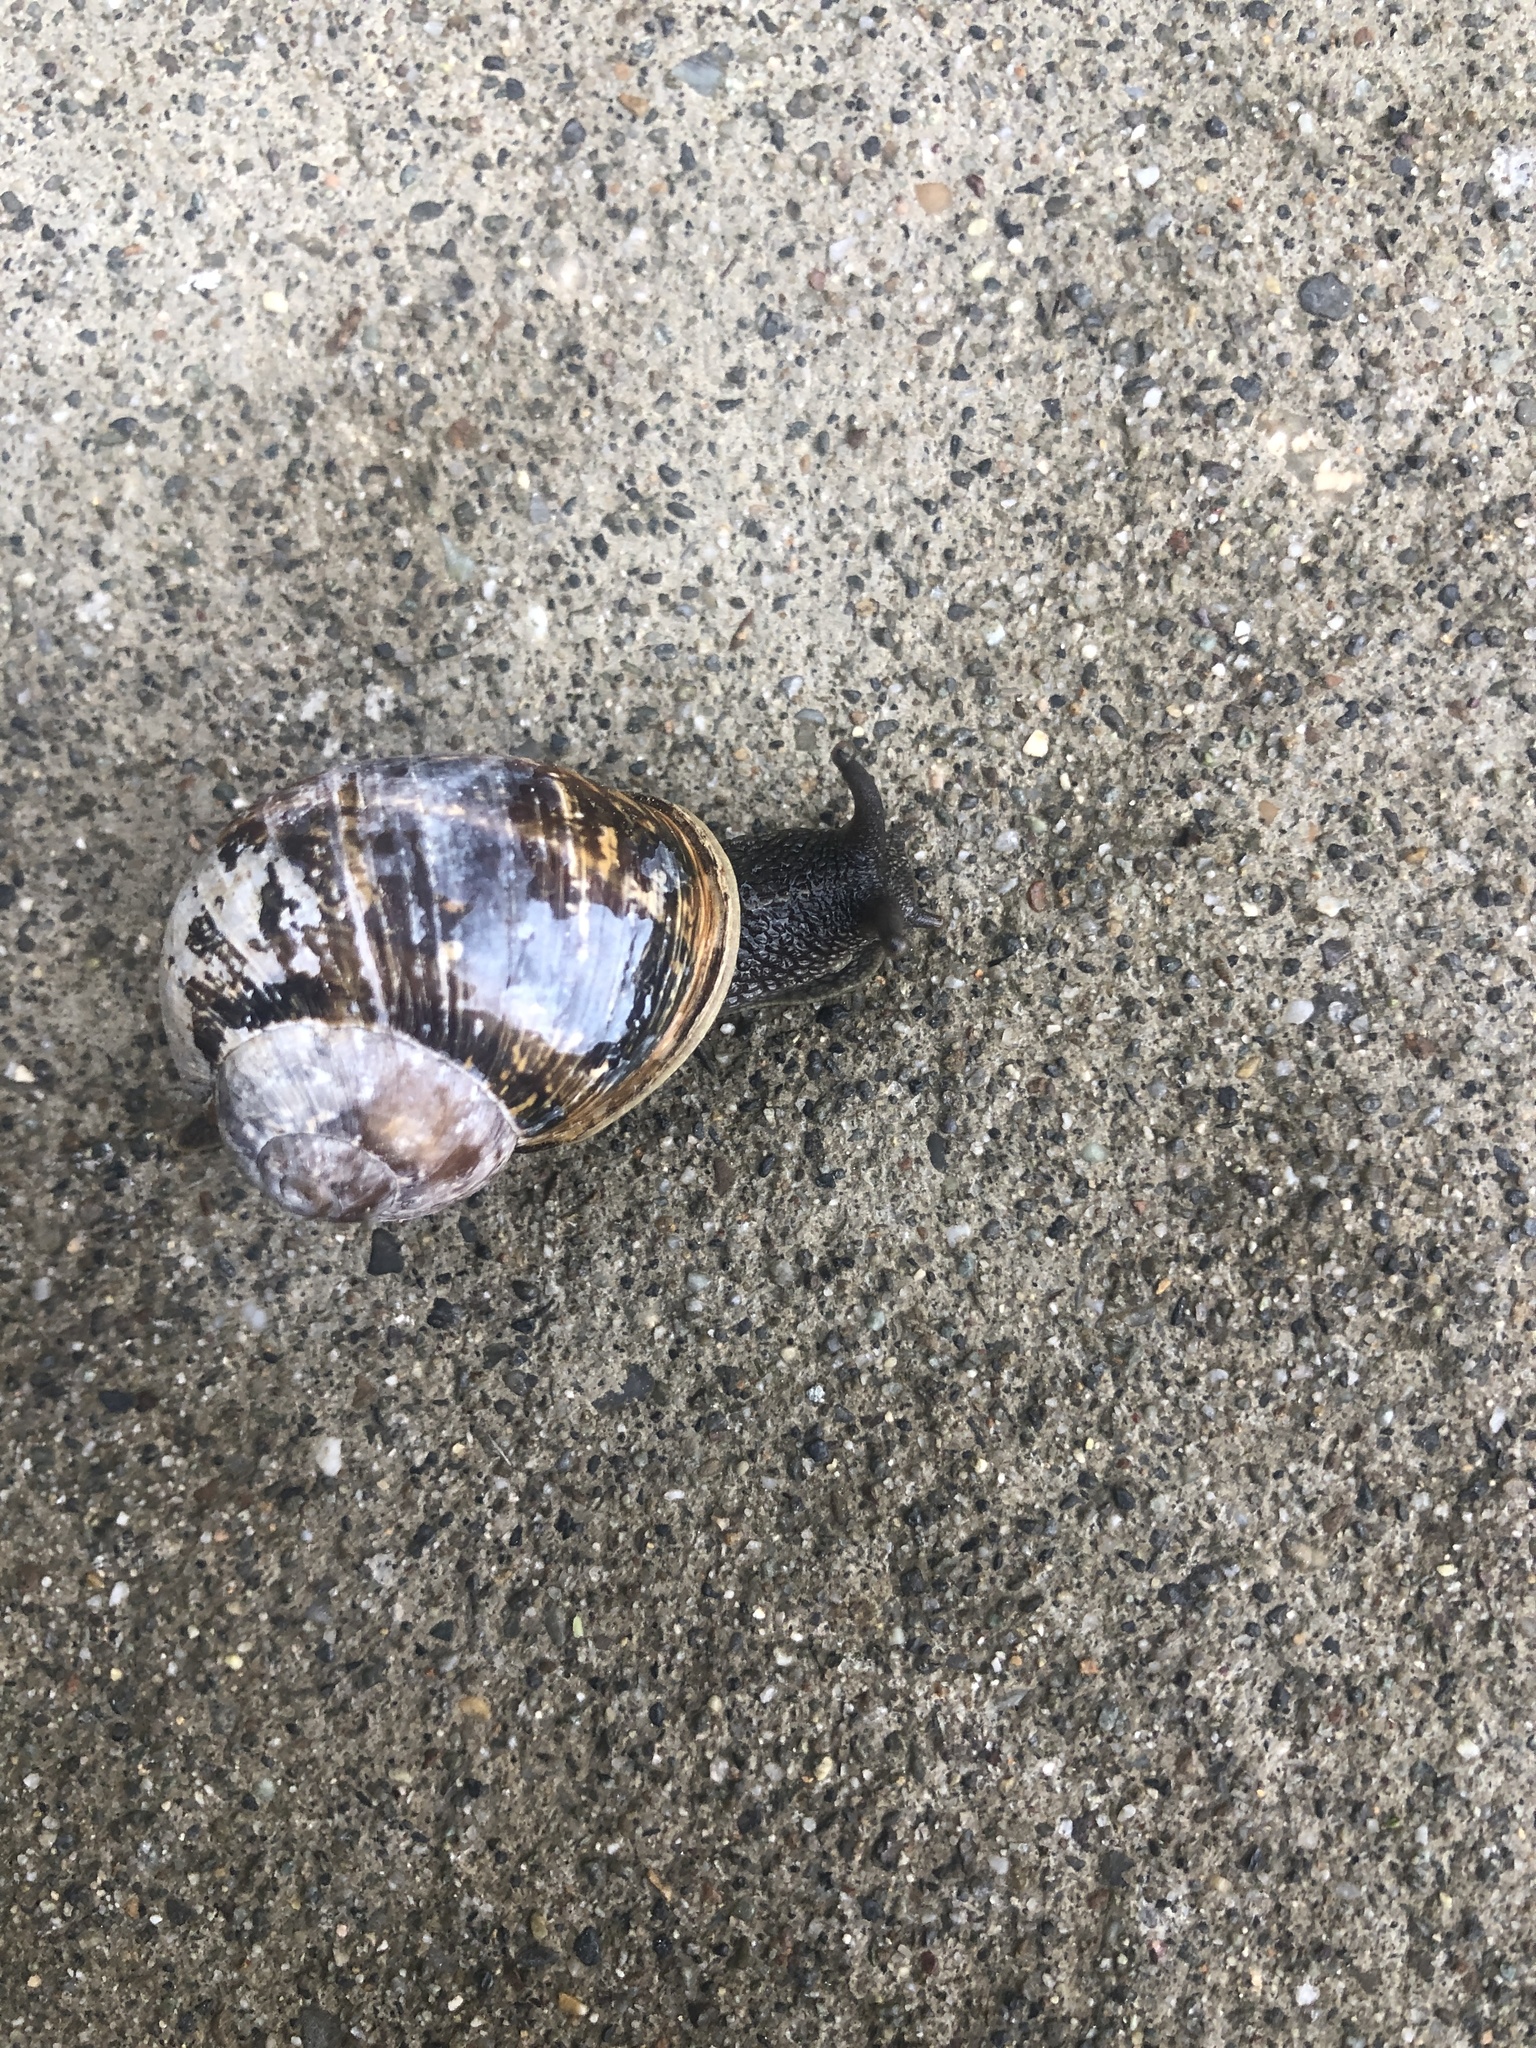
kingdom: Animalia
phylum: Mollusca
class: Gastropoda
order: Stylommatophora
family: Helicidae
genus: Cornu
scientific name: Cornu aspersum
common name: Brown garden snail
